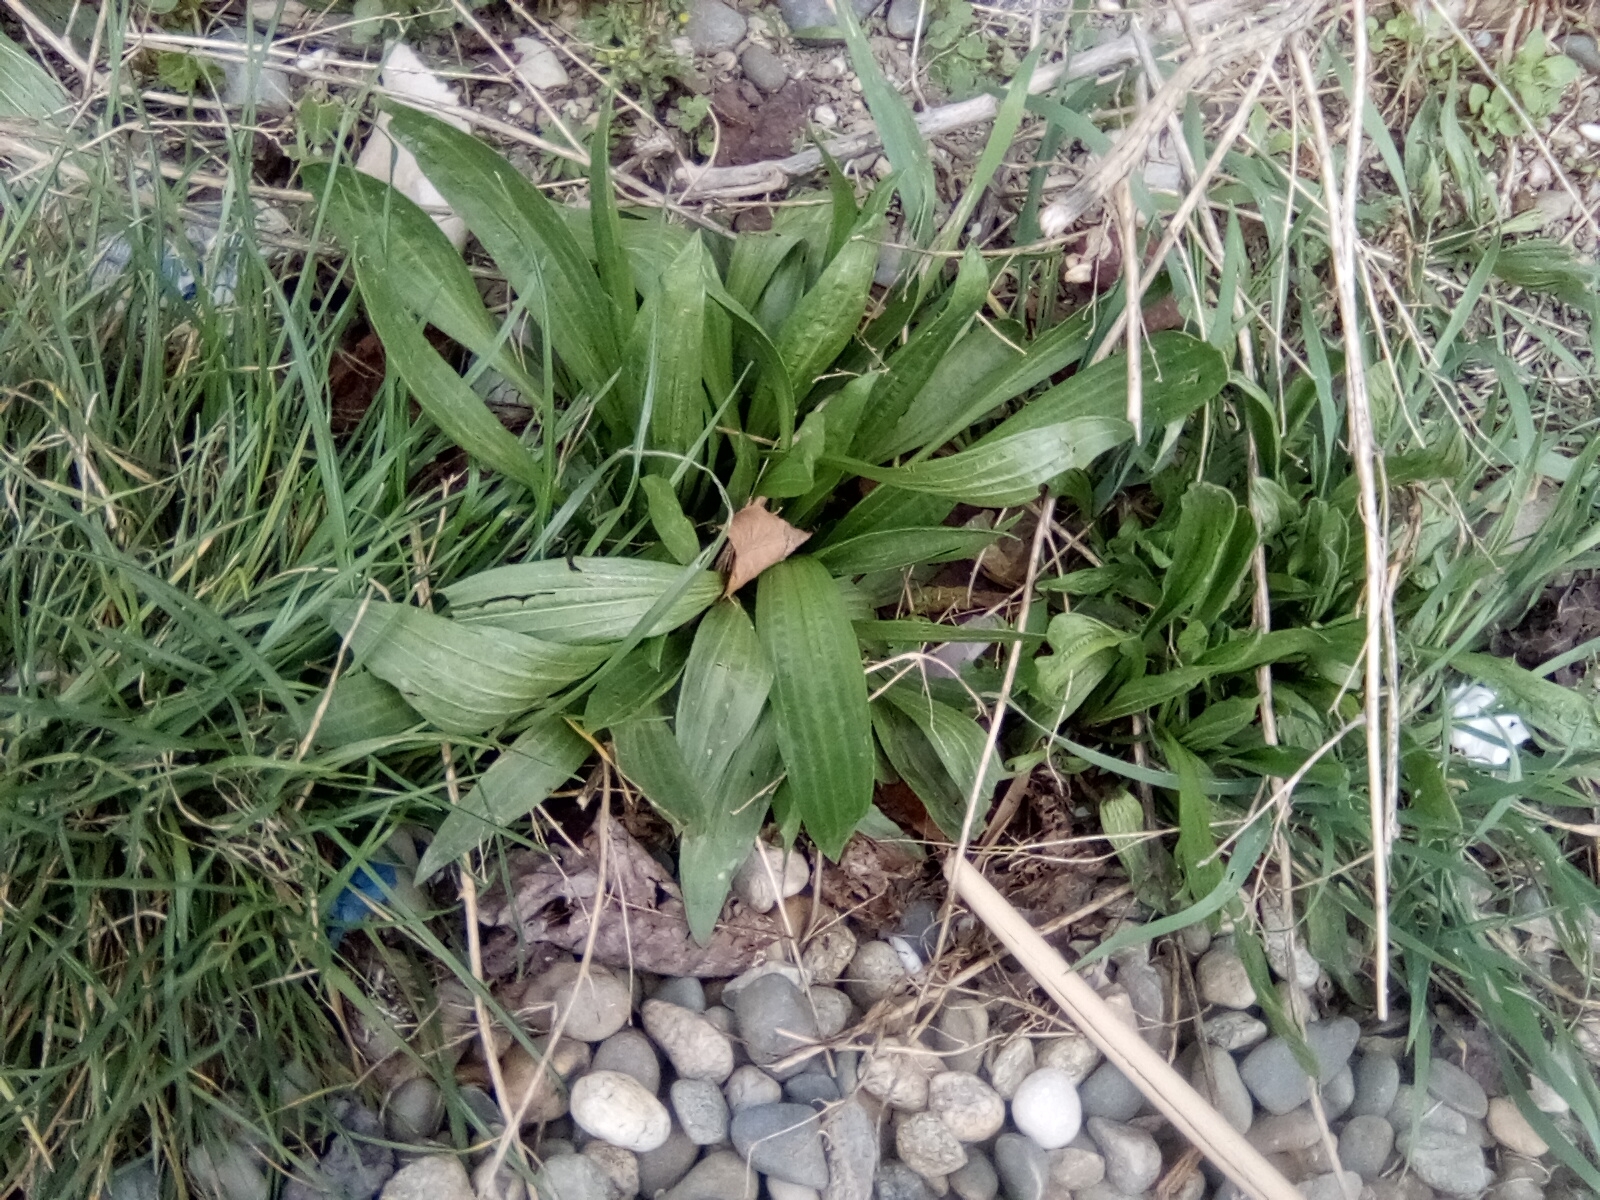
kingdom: Plantae
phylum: Tracheophyta
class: Magnoliopsida
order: Lamiales
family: Plantaginaceae
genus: Plantago
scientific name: Plantago lanceolata
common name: Ribwort plantain
